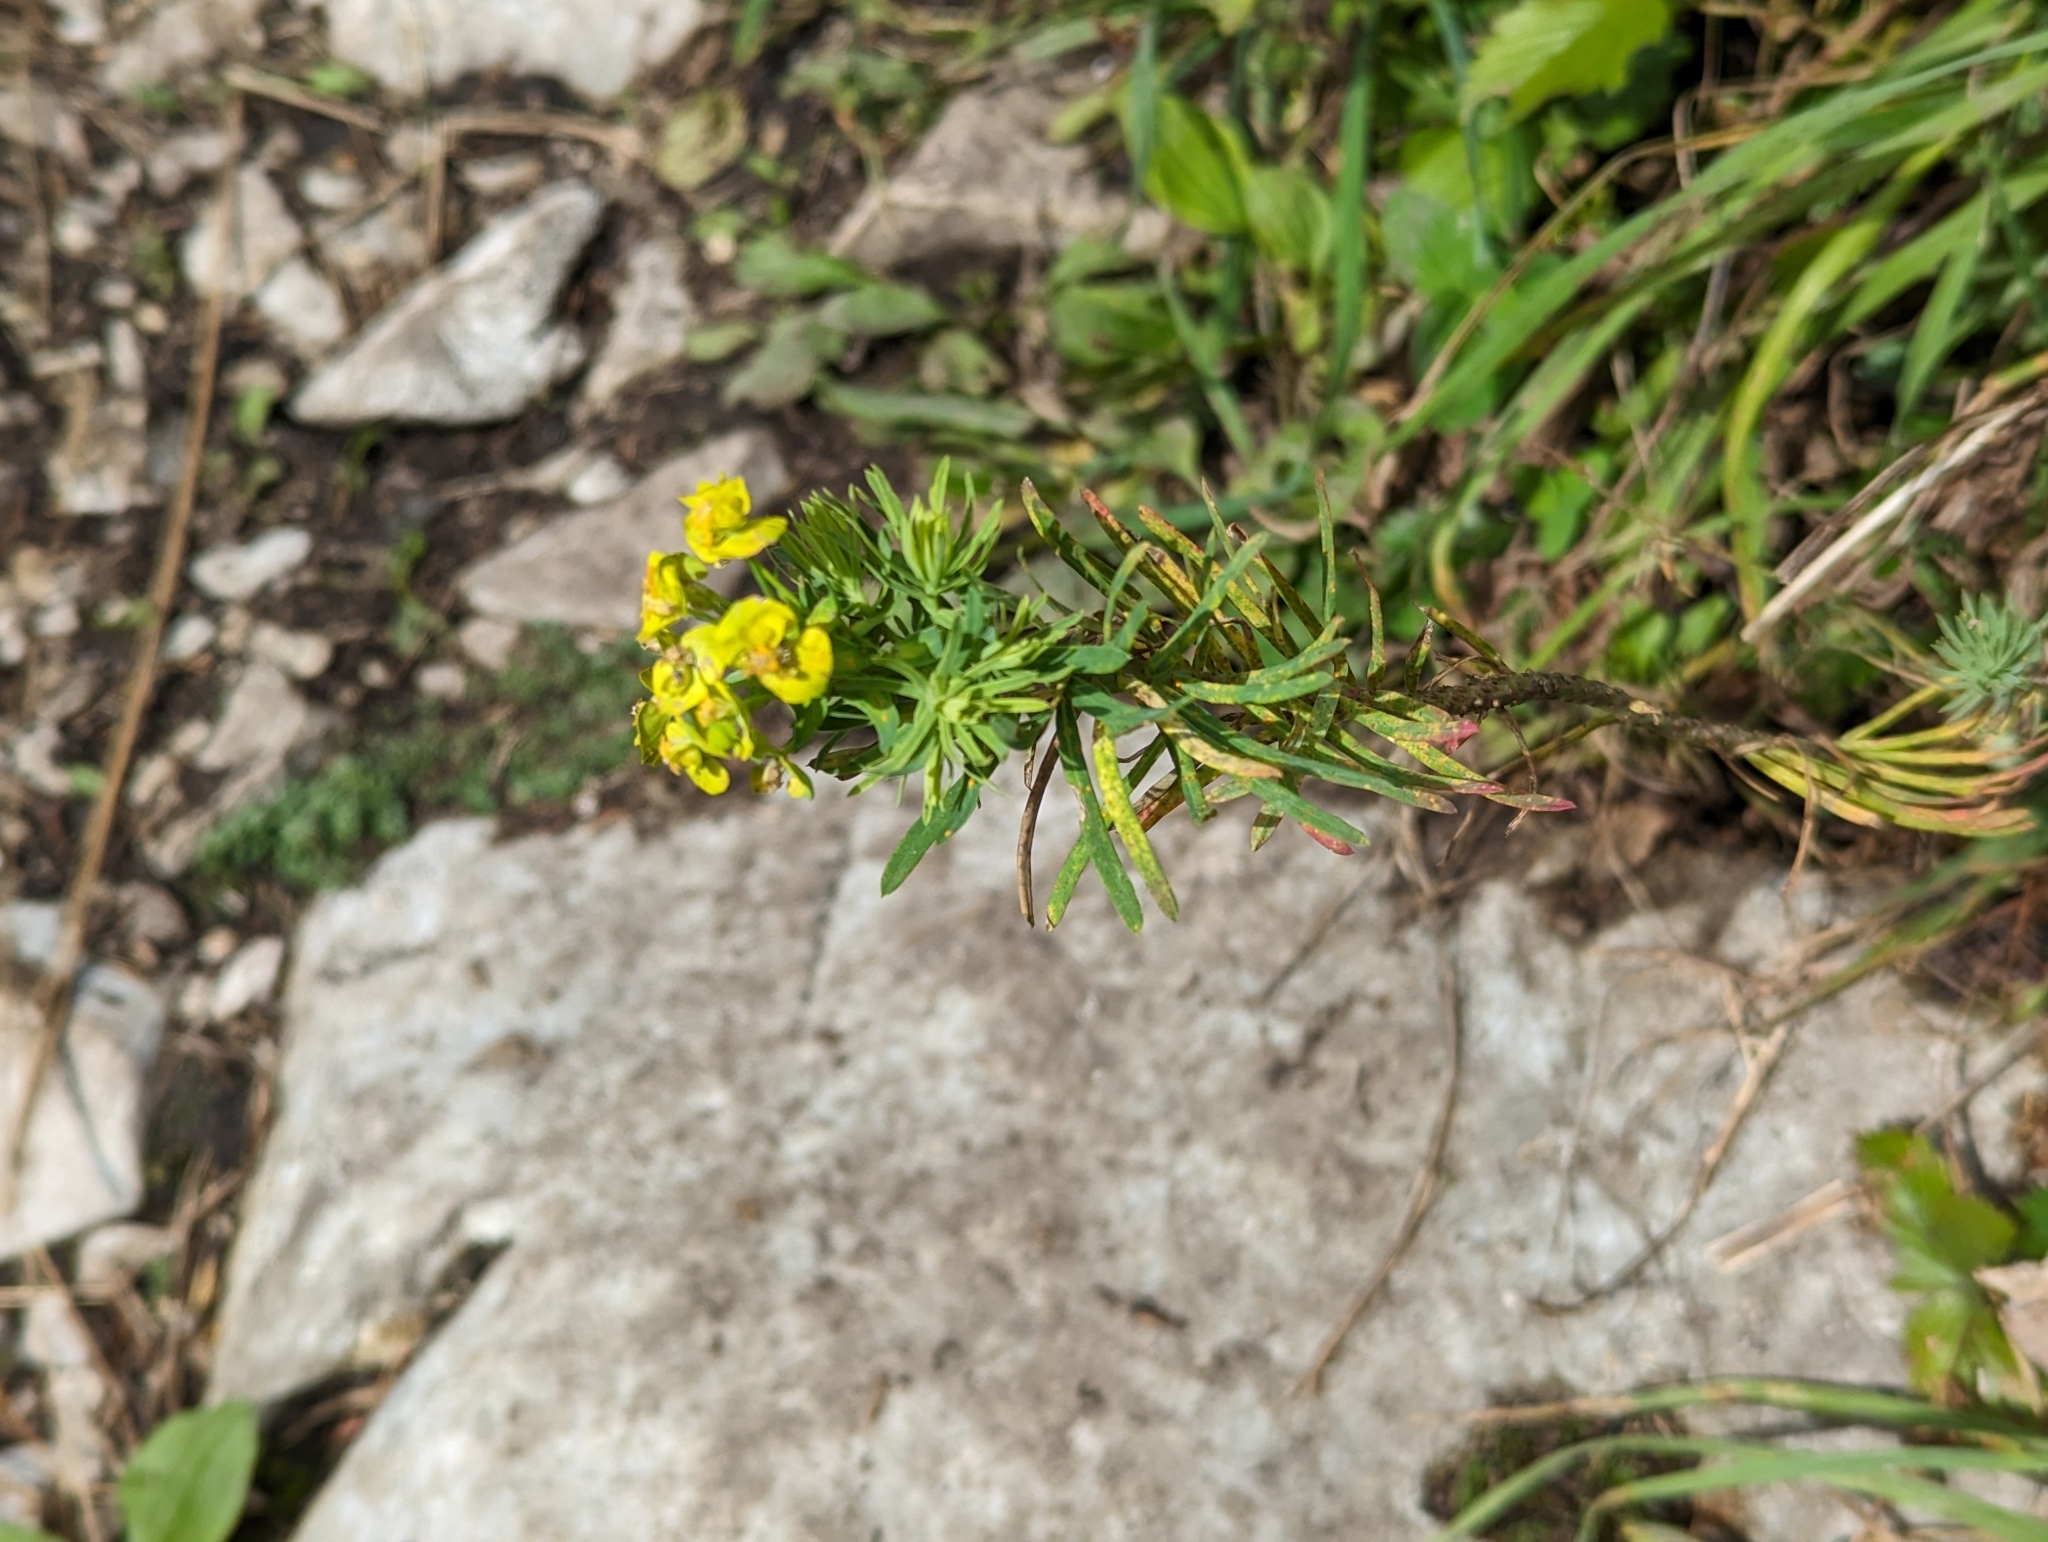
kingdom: Plantae
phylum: Tracheophyta
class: Magnoliopsida
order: Malpighiales
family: Euphorbiaceae
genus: Euphorbia
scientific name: Euphorbia cyparissias
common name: Cypress spurge
